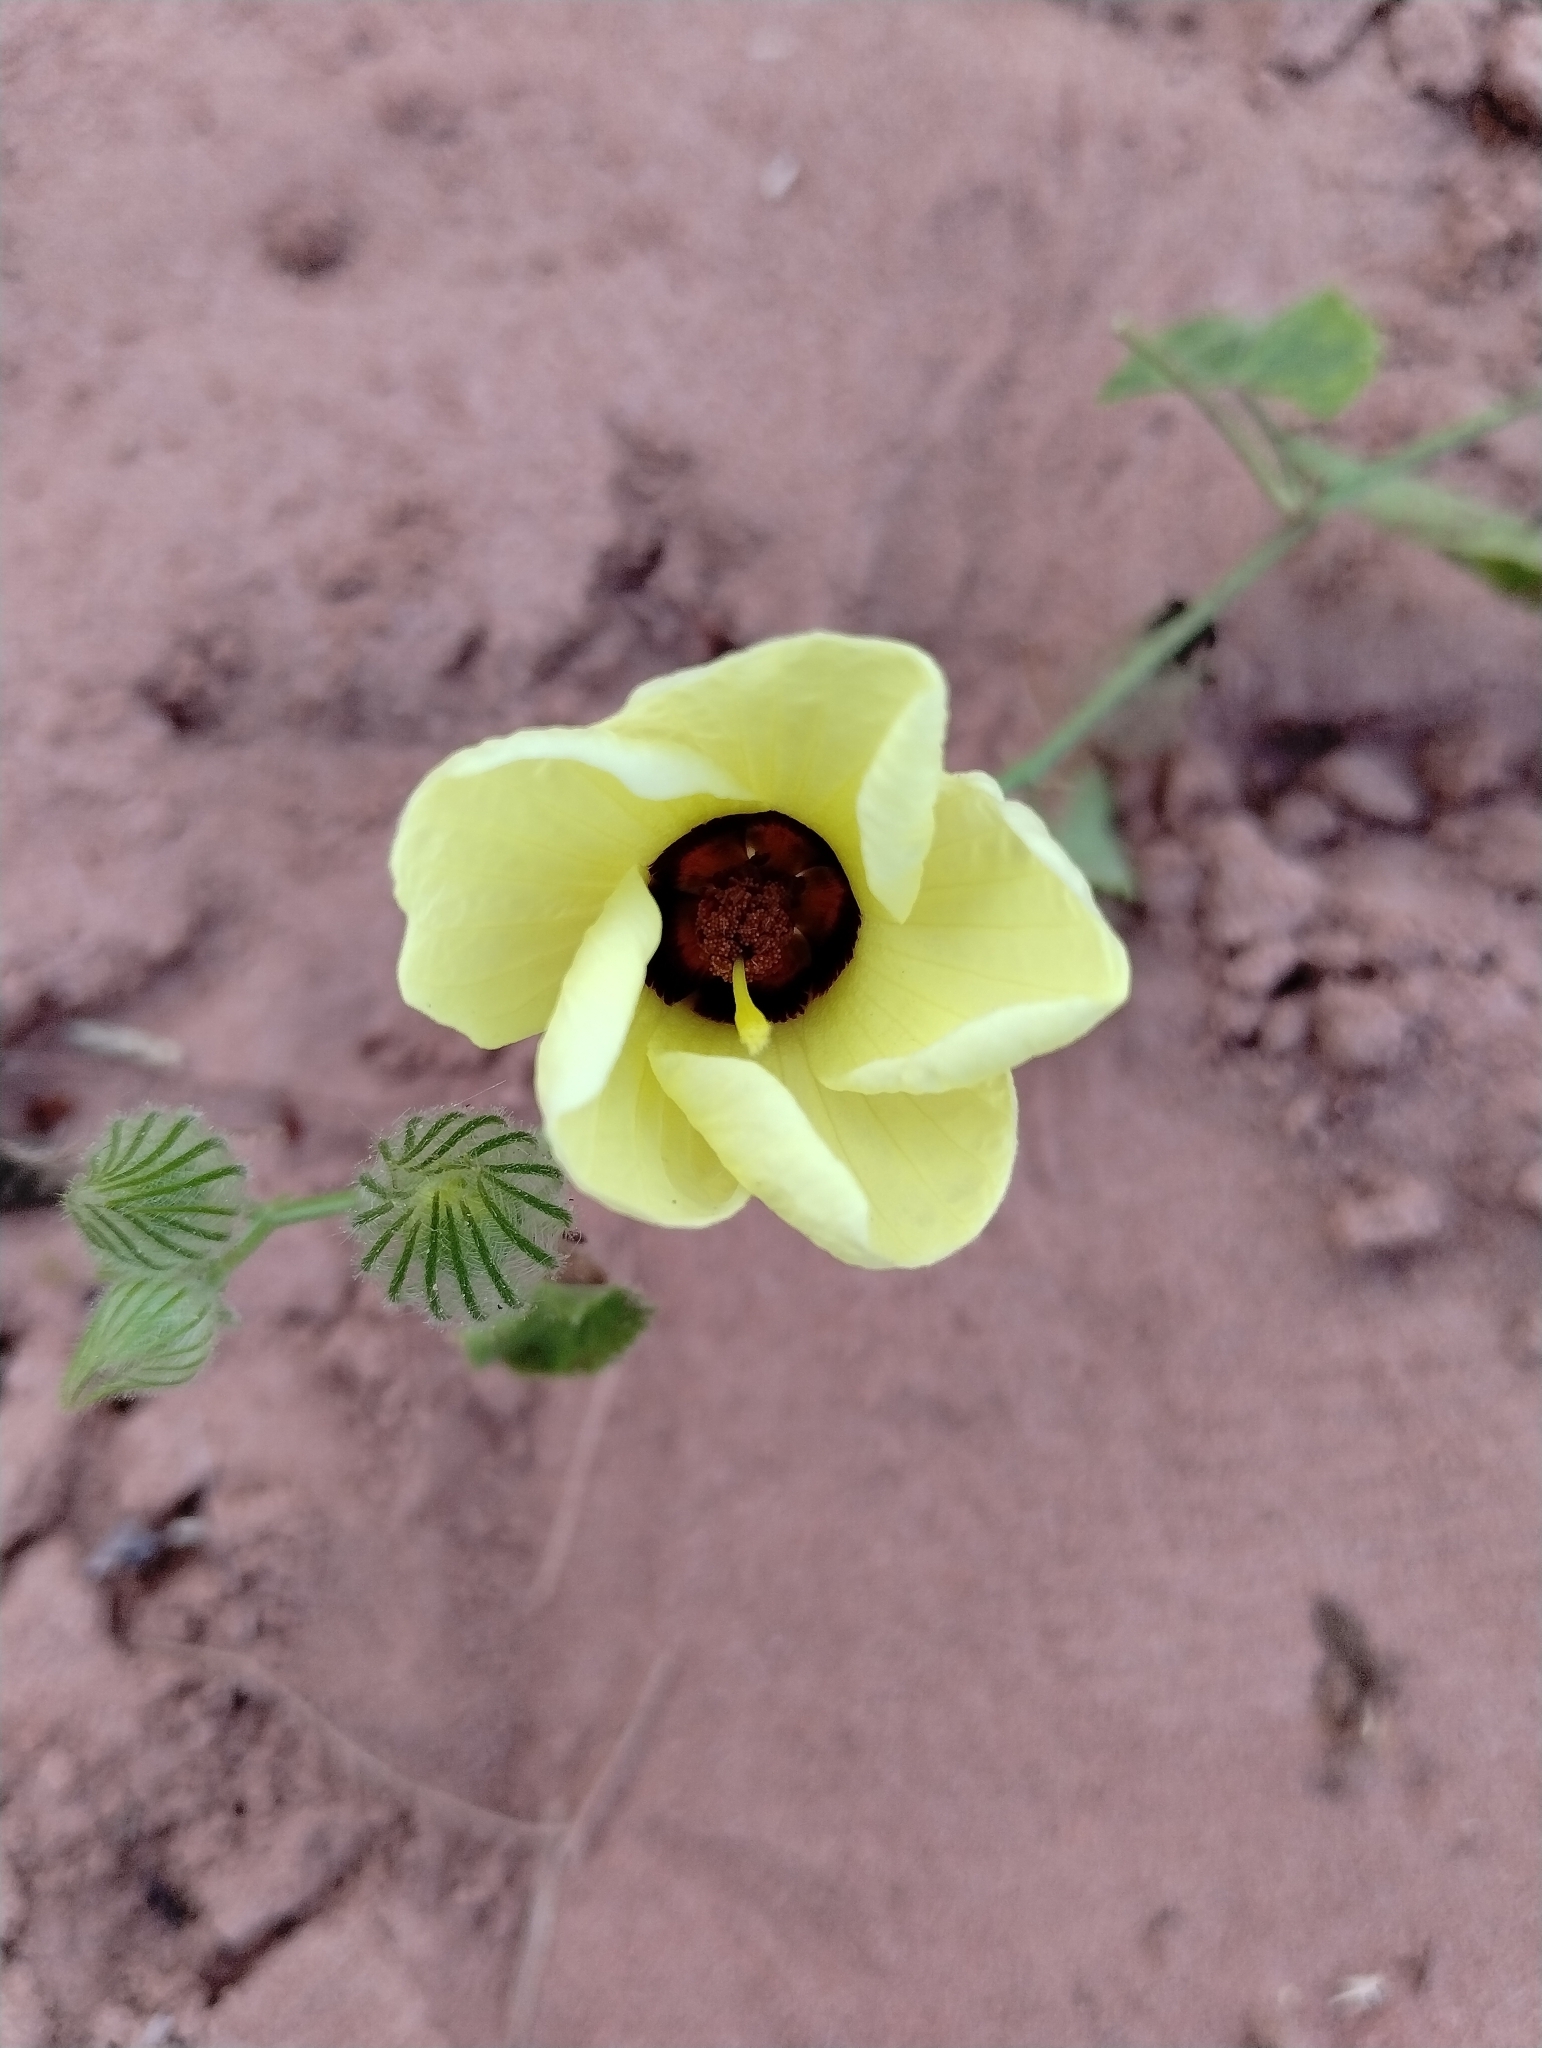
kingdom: Plantae
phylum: Tracheophyta
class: Magnoliopsida
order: Malvales
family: Malvaceae
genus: Pavonia
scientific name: Pavonia cancellata
